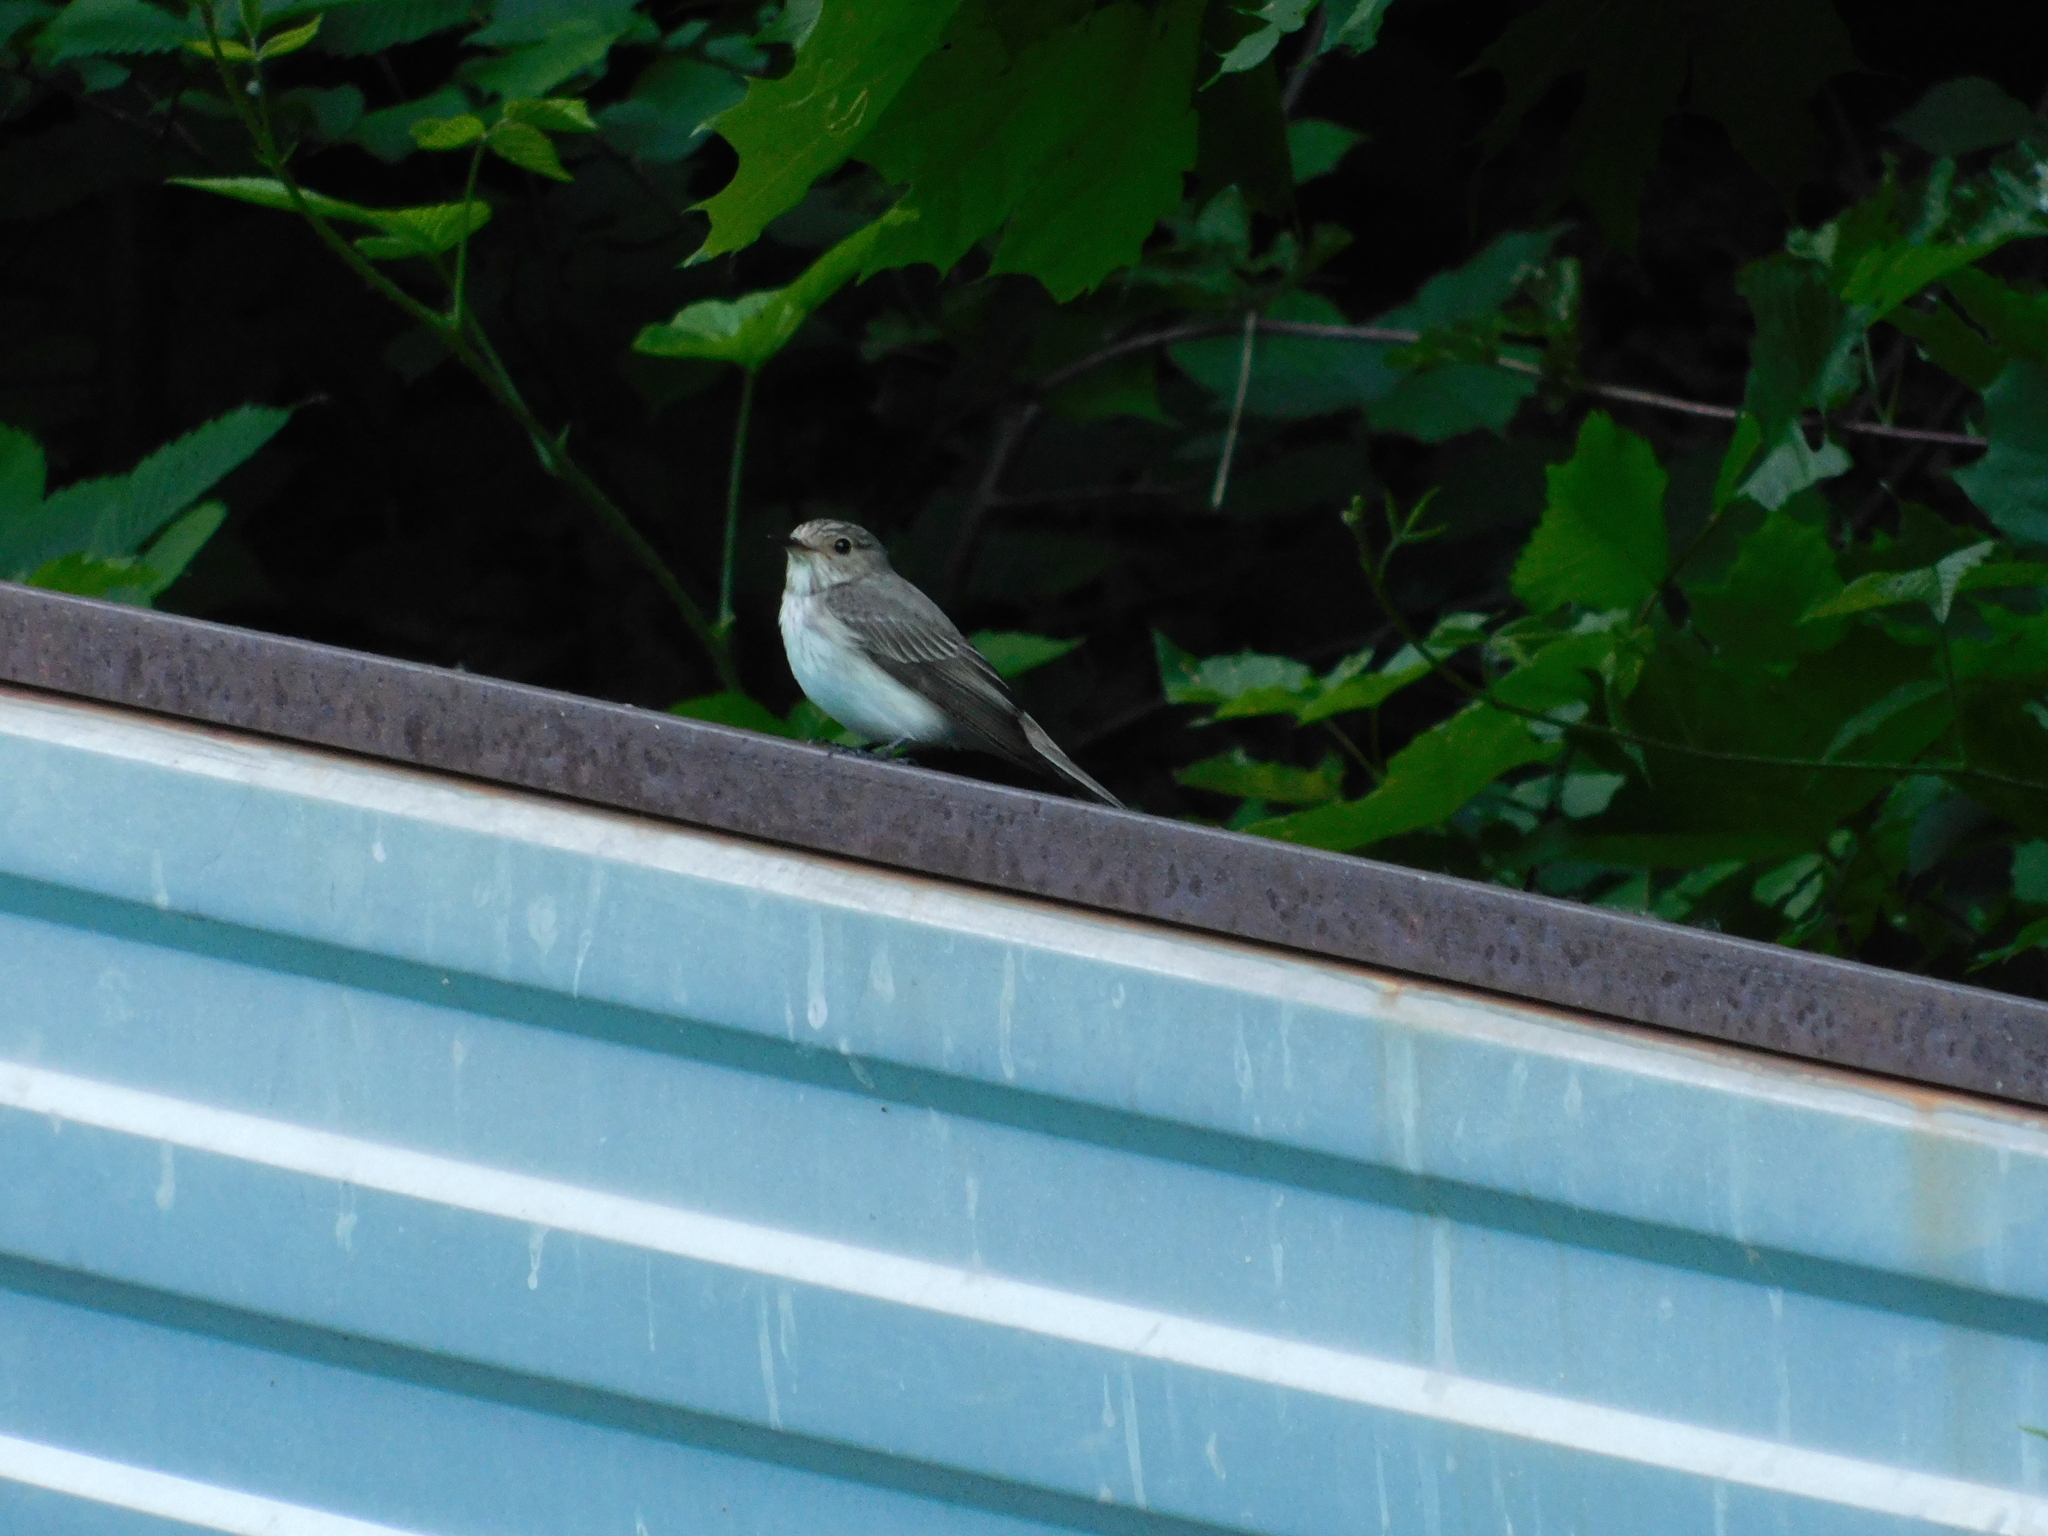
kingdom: Animalia
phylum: Chordata
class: Aves
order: Passeriformes
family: Muscicapidae
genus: Muscicapa
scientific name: Muscicapa striata
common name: Spotted flycatcher
